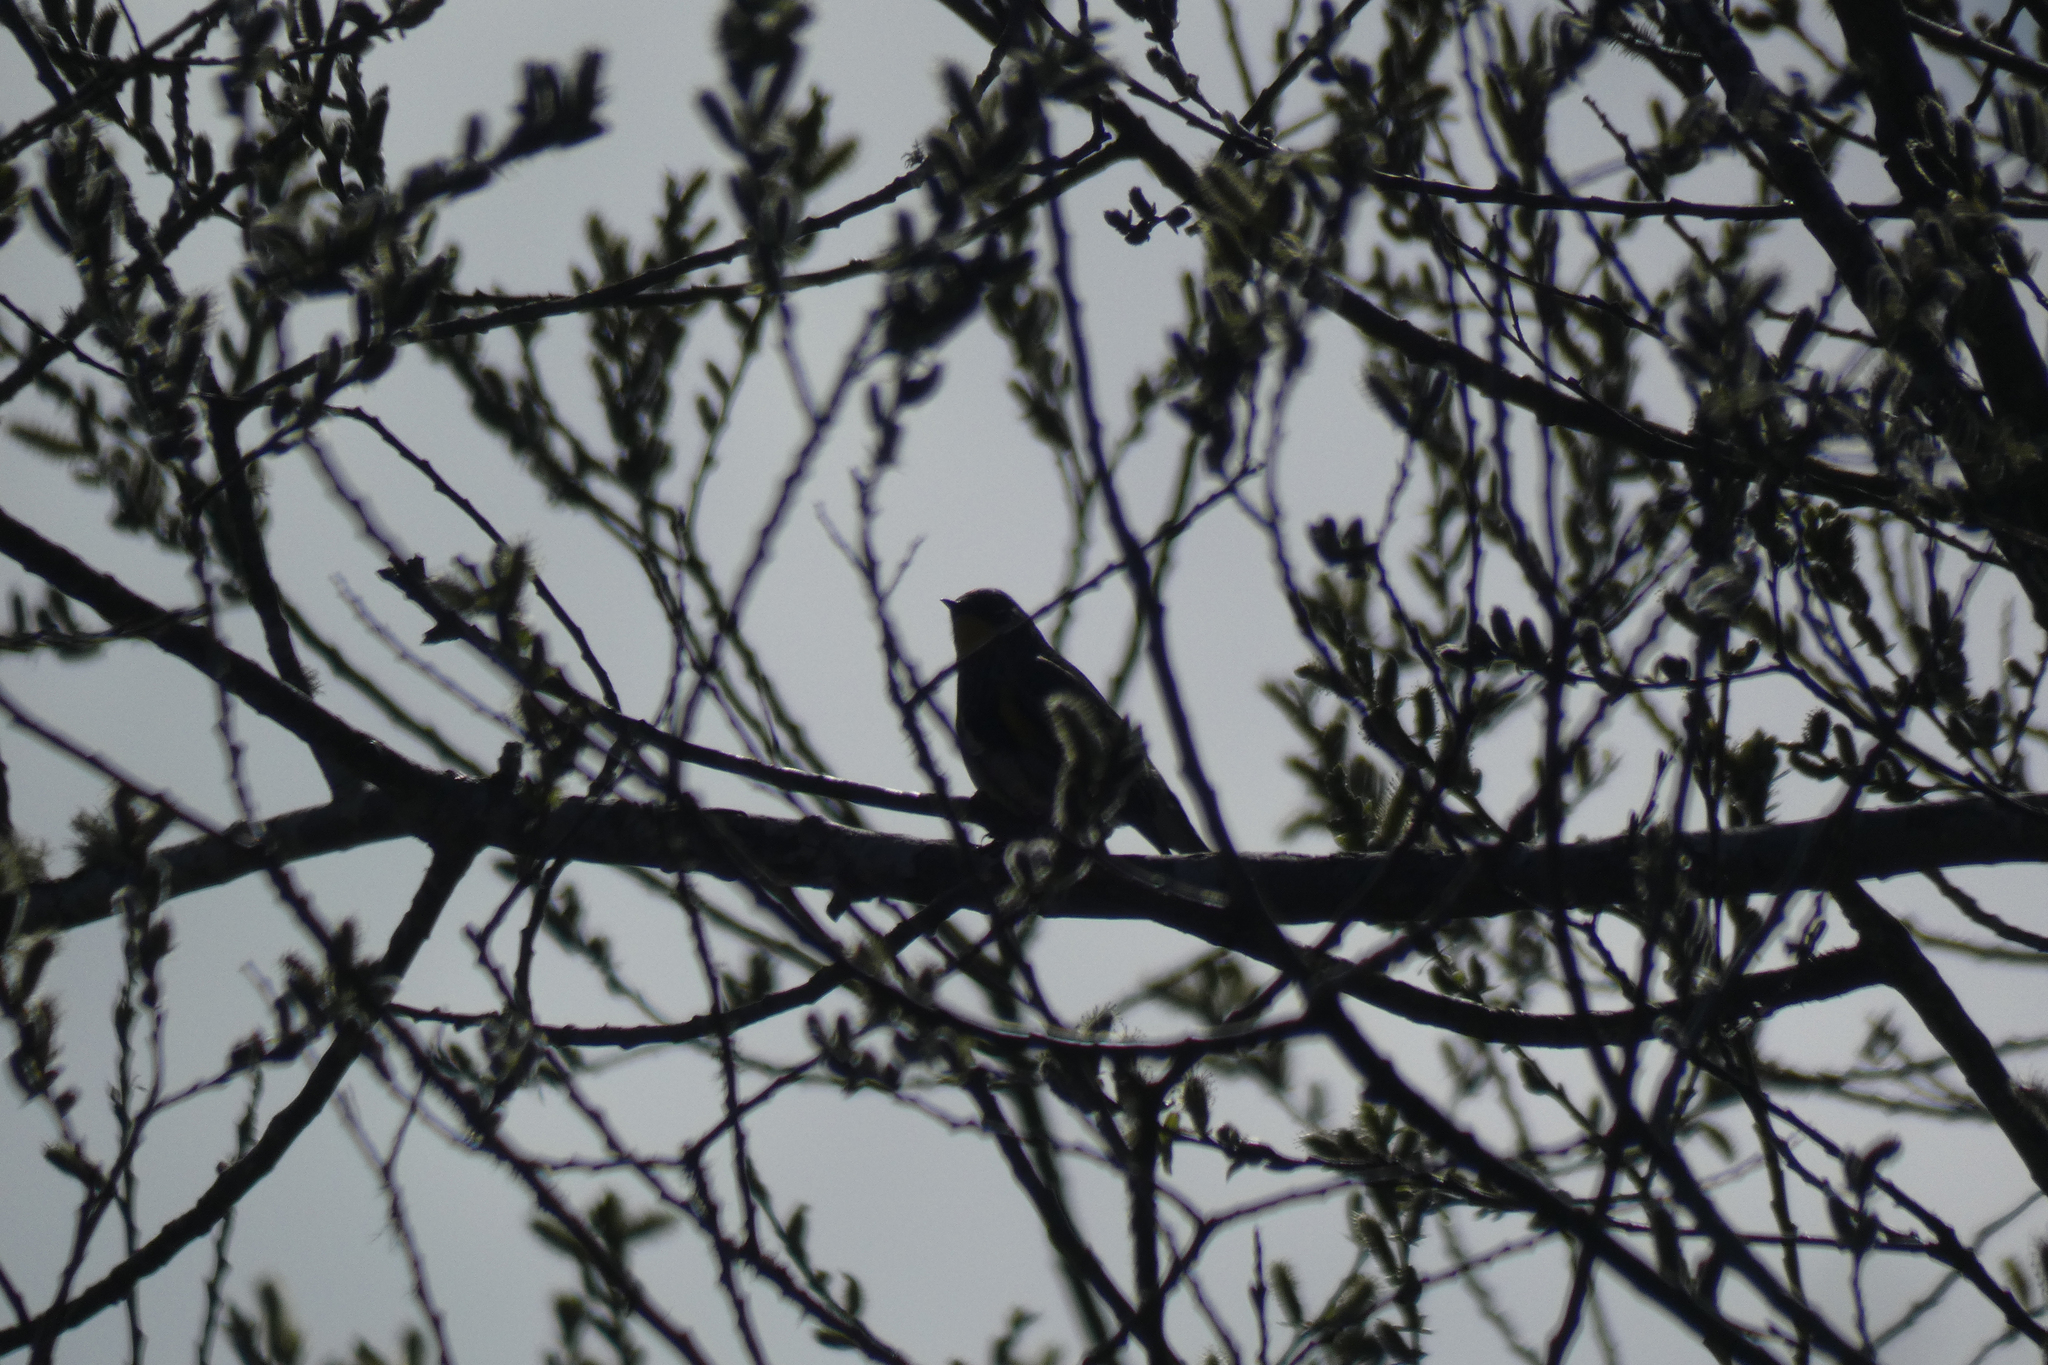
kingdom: Animalia
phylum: Chordata
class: Aves
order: Passeriformes
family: Parulidae
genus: Setophaga
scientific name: Setophaga coronata
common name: Myrtle warbler
